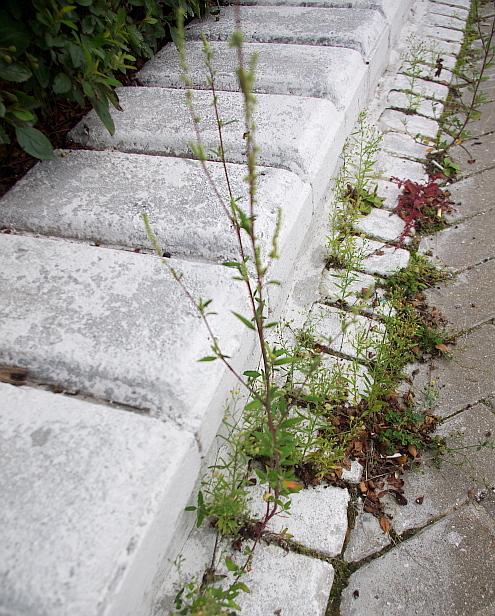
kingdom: Plantae
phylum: Tracheophyta
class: Magnoliopsida
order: Caryophyllales
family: Amaranthaceae
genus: Chenopodium
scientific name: Chenopodium betaceum
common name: Striped goosefoot
